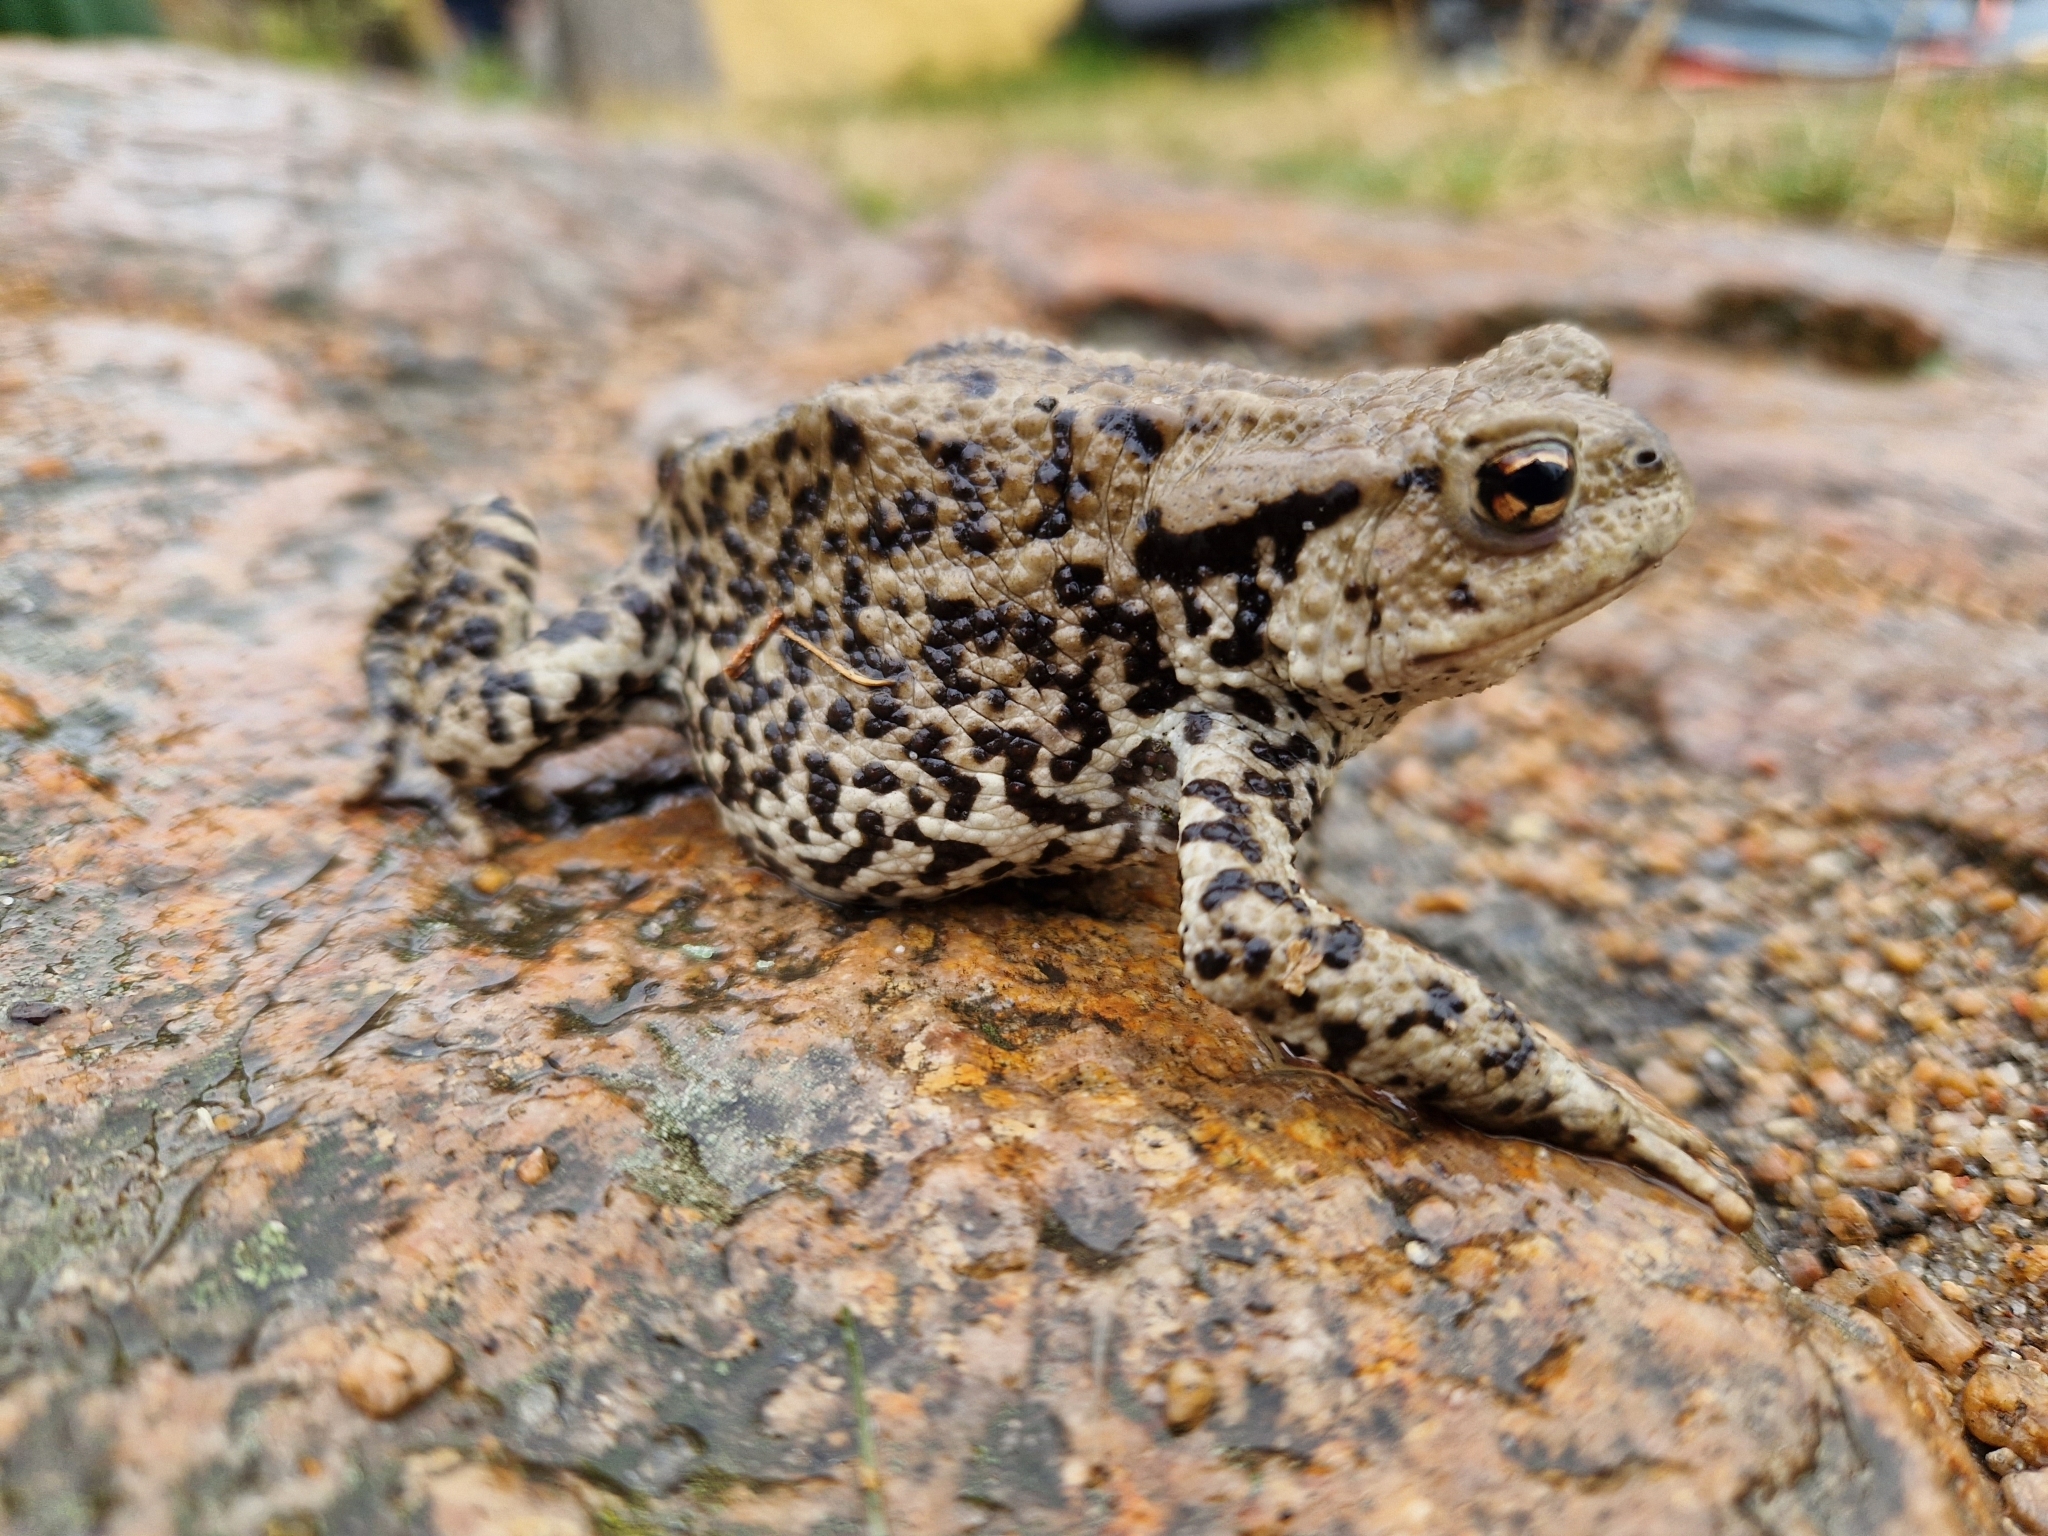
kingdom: Animalia
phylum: Chordata
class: Amphibia
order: Anura
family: Bufonidae
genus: Bufo
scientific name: Bufo bufo
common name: Common toad
